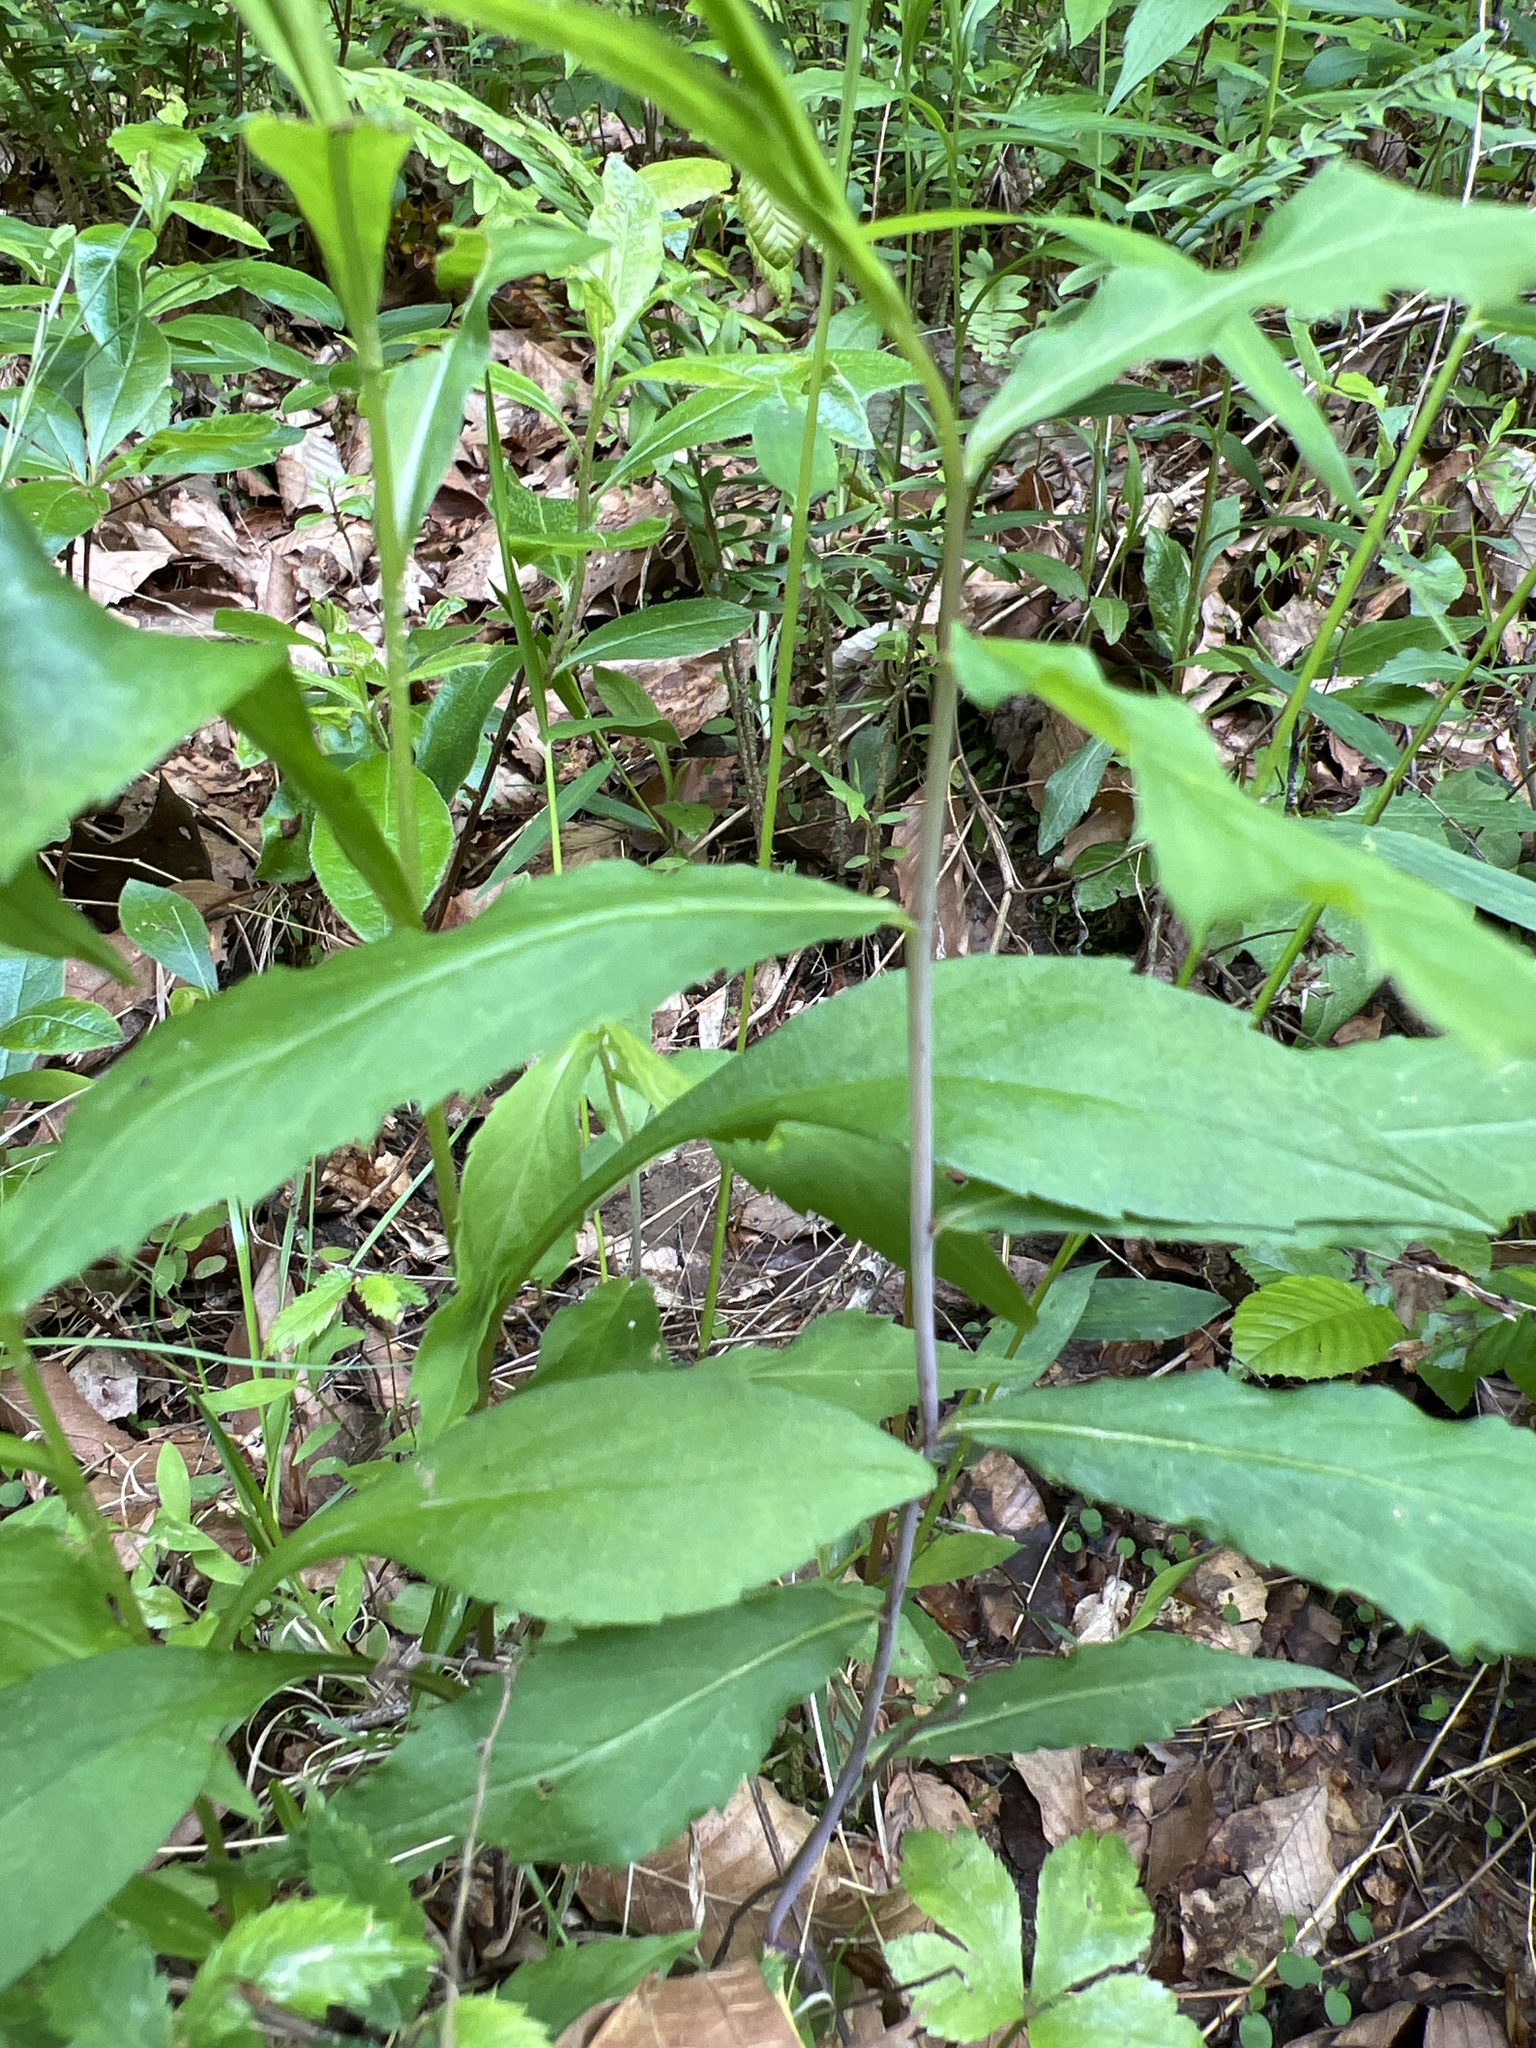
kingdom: Plantae
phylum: Tracheophyta
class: Magnoliopsida
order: Asterales
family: Asteraceae
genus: Solidago
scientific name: Solidago caesia
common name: Woodland goldenrod
